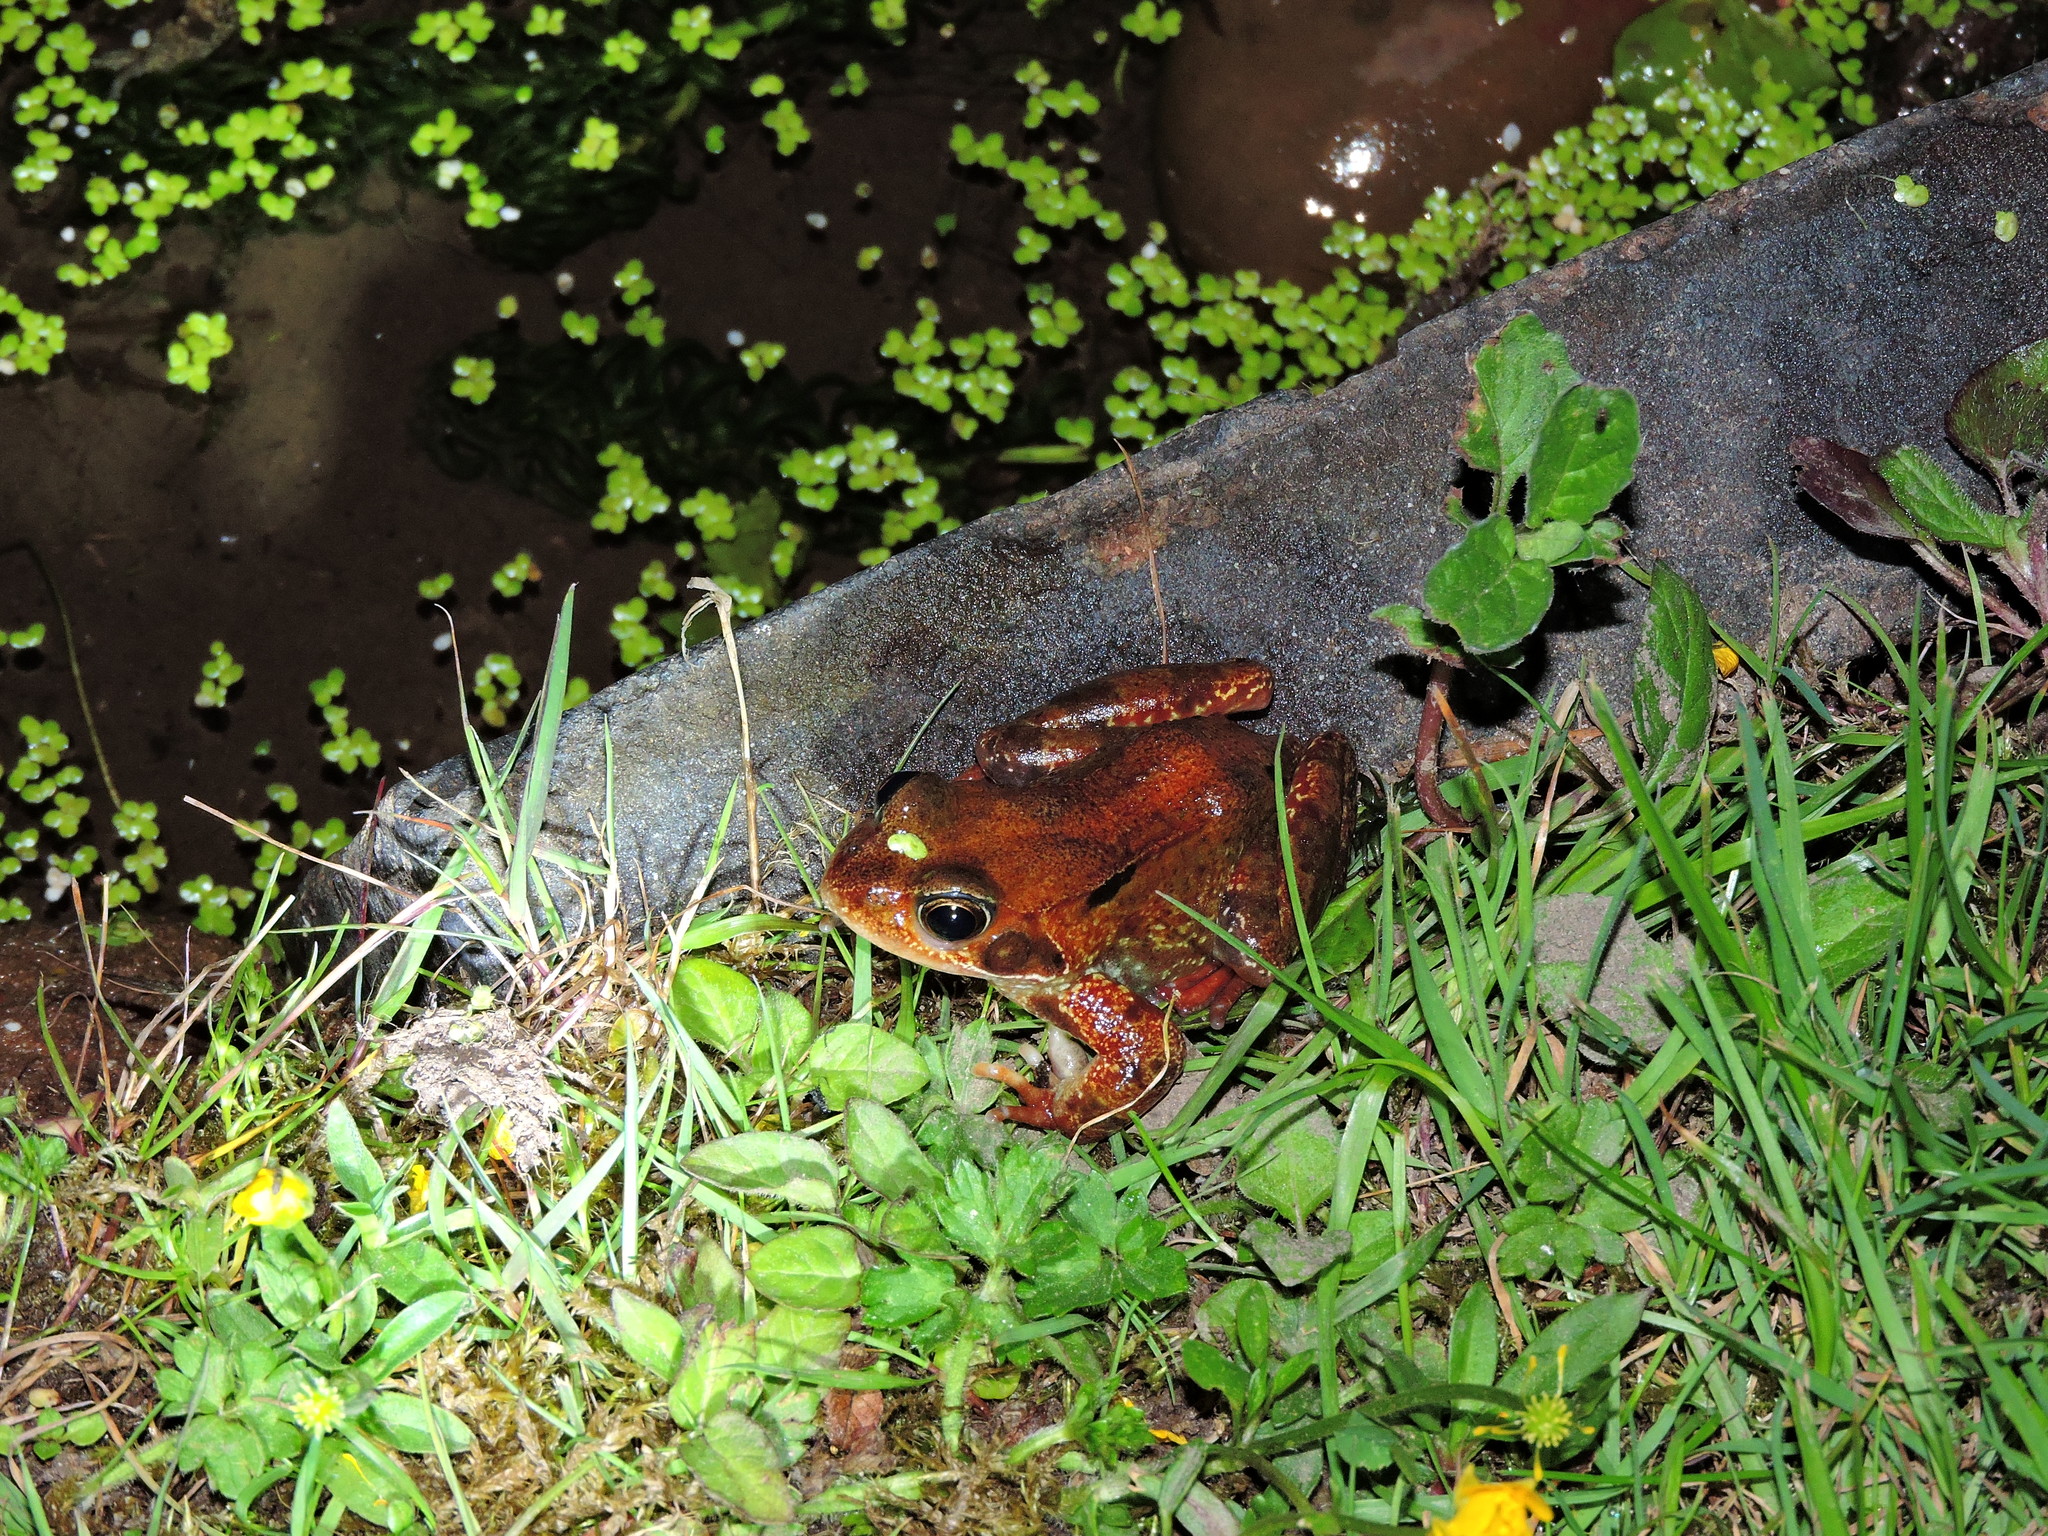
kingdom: Animalia
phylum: Chordata
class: Amphibia
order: Anura
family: Ranidae
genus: Rana
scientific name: Rana temporaria
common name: Common frog
